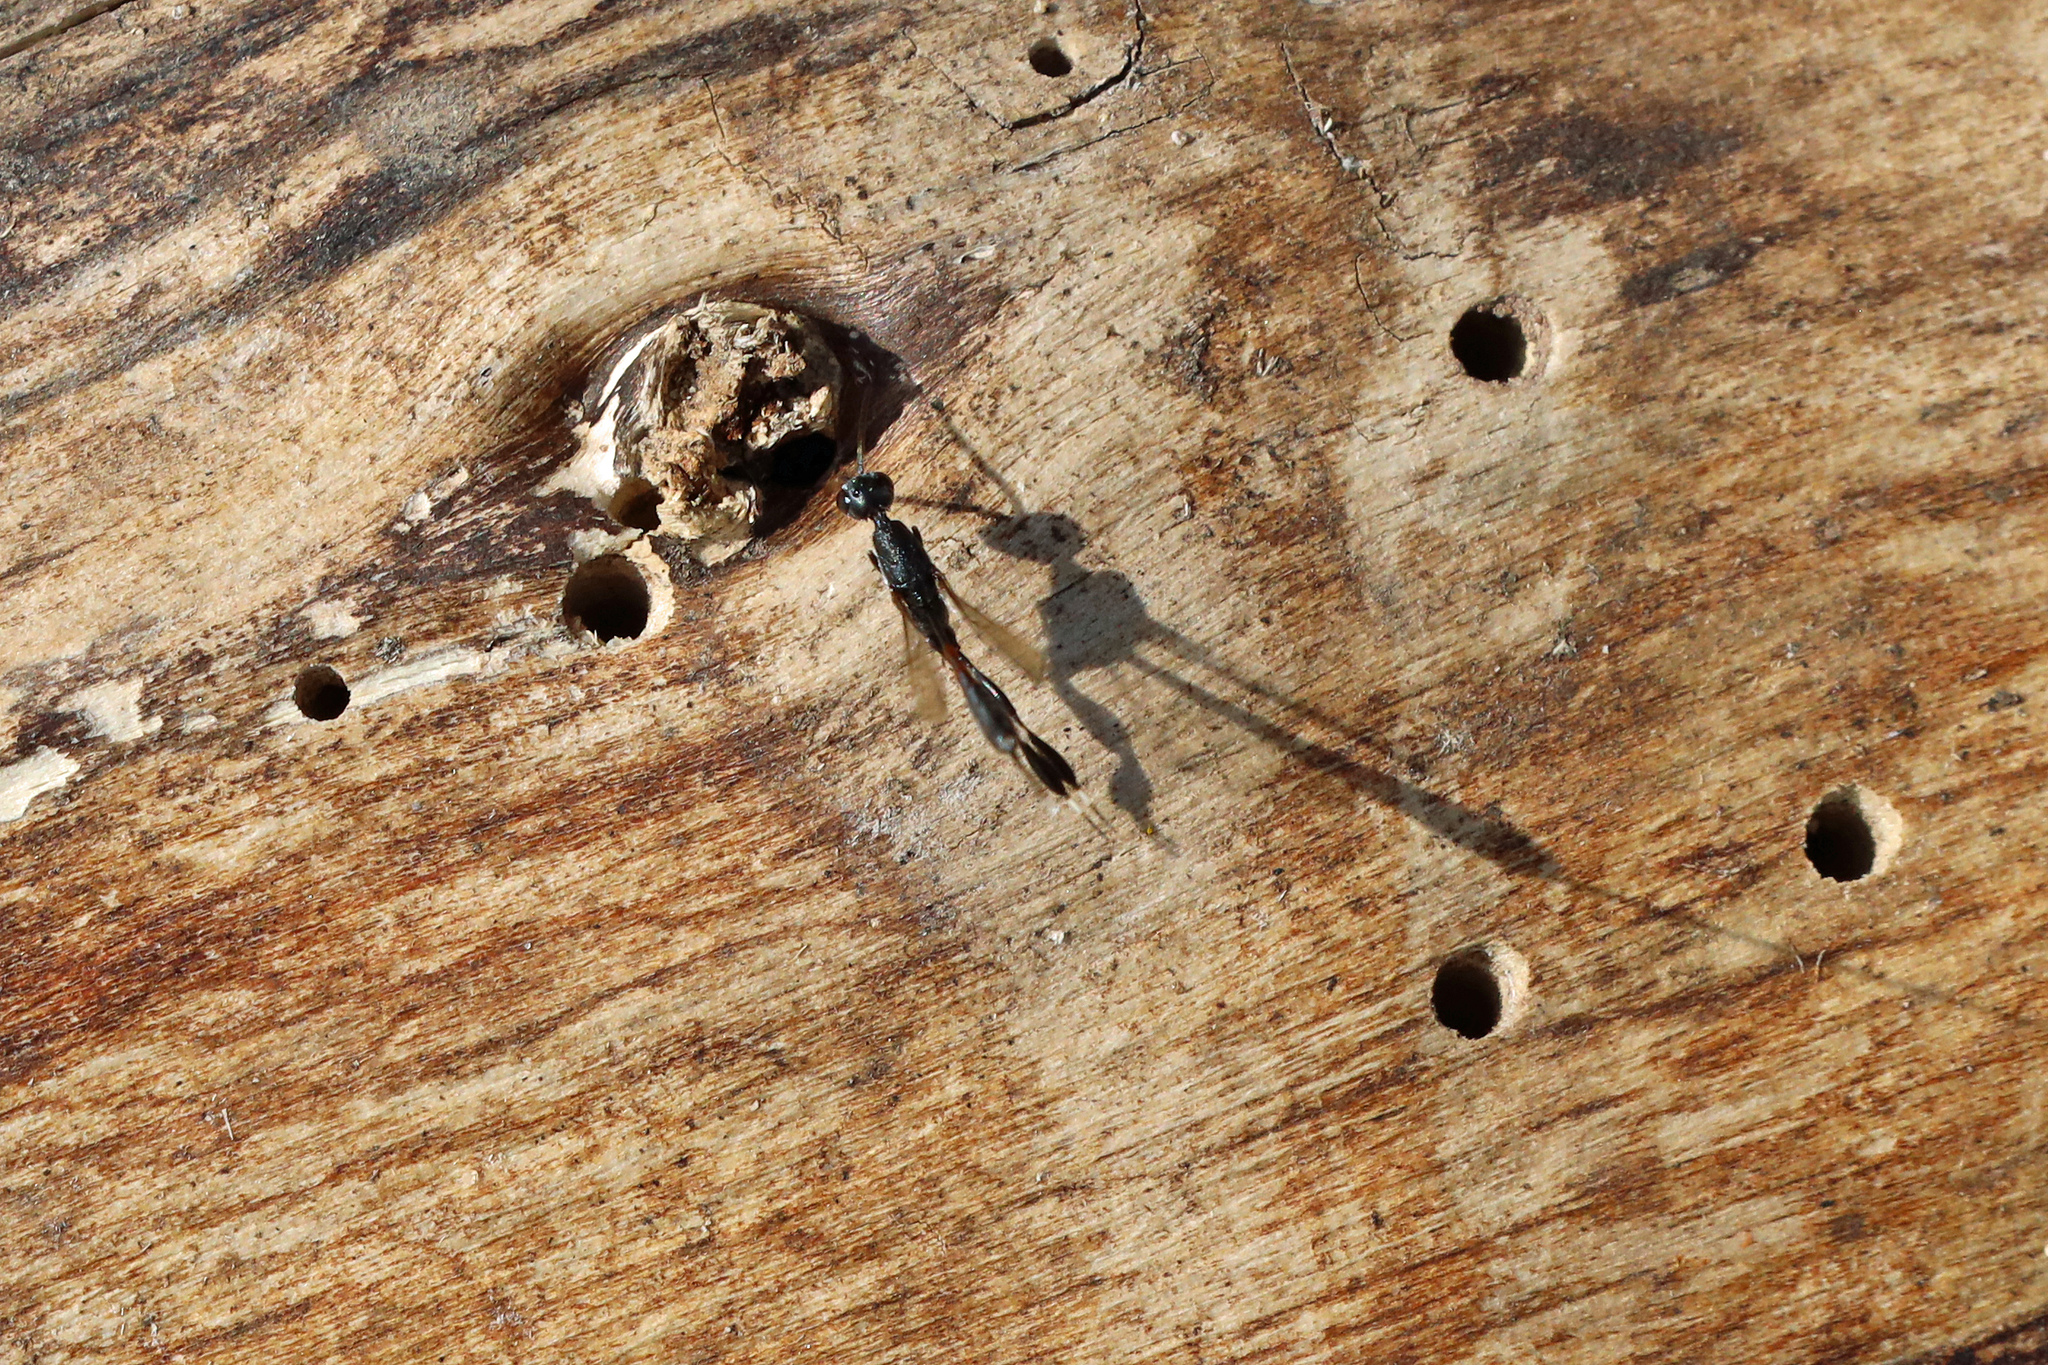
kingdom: Animalia
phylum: Arthropoda
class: Insecta
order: Hymenoptera
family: Gasteruptiidae
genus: Gasteruption
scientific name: Gasteruption
